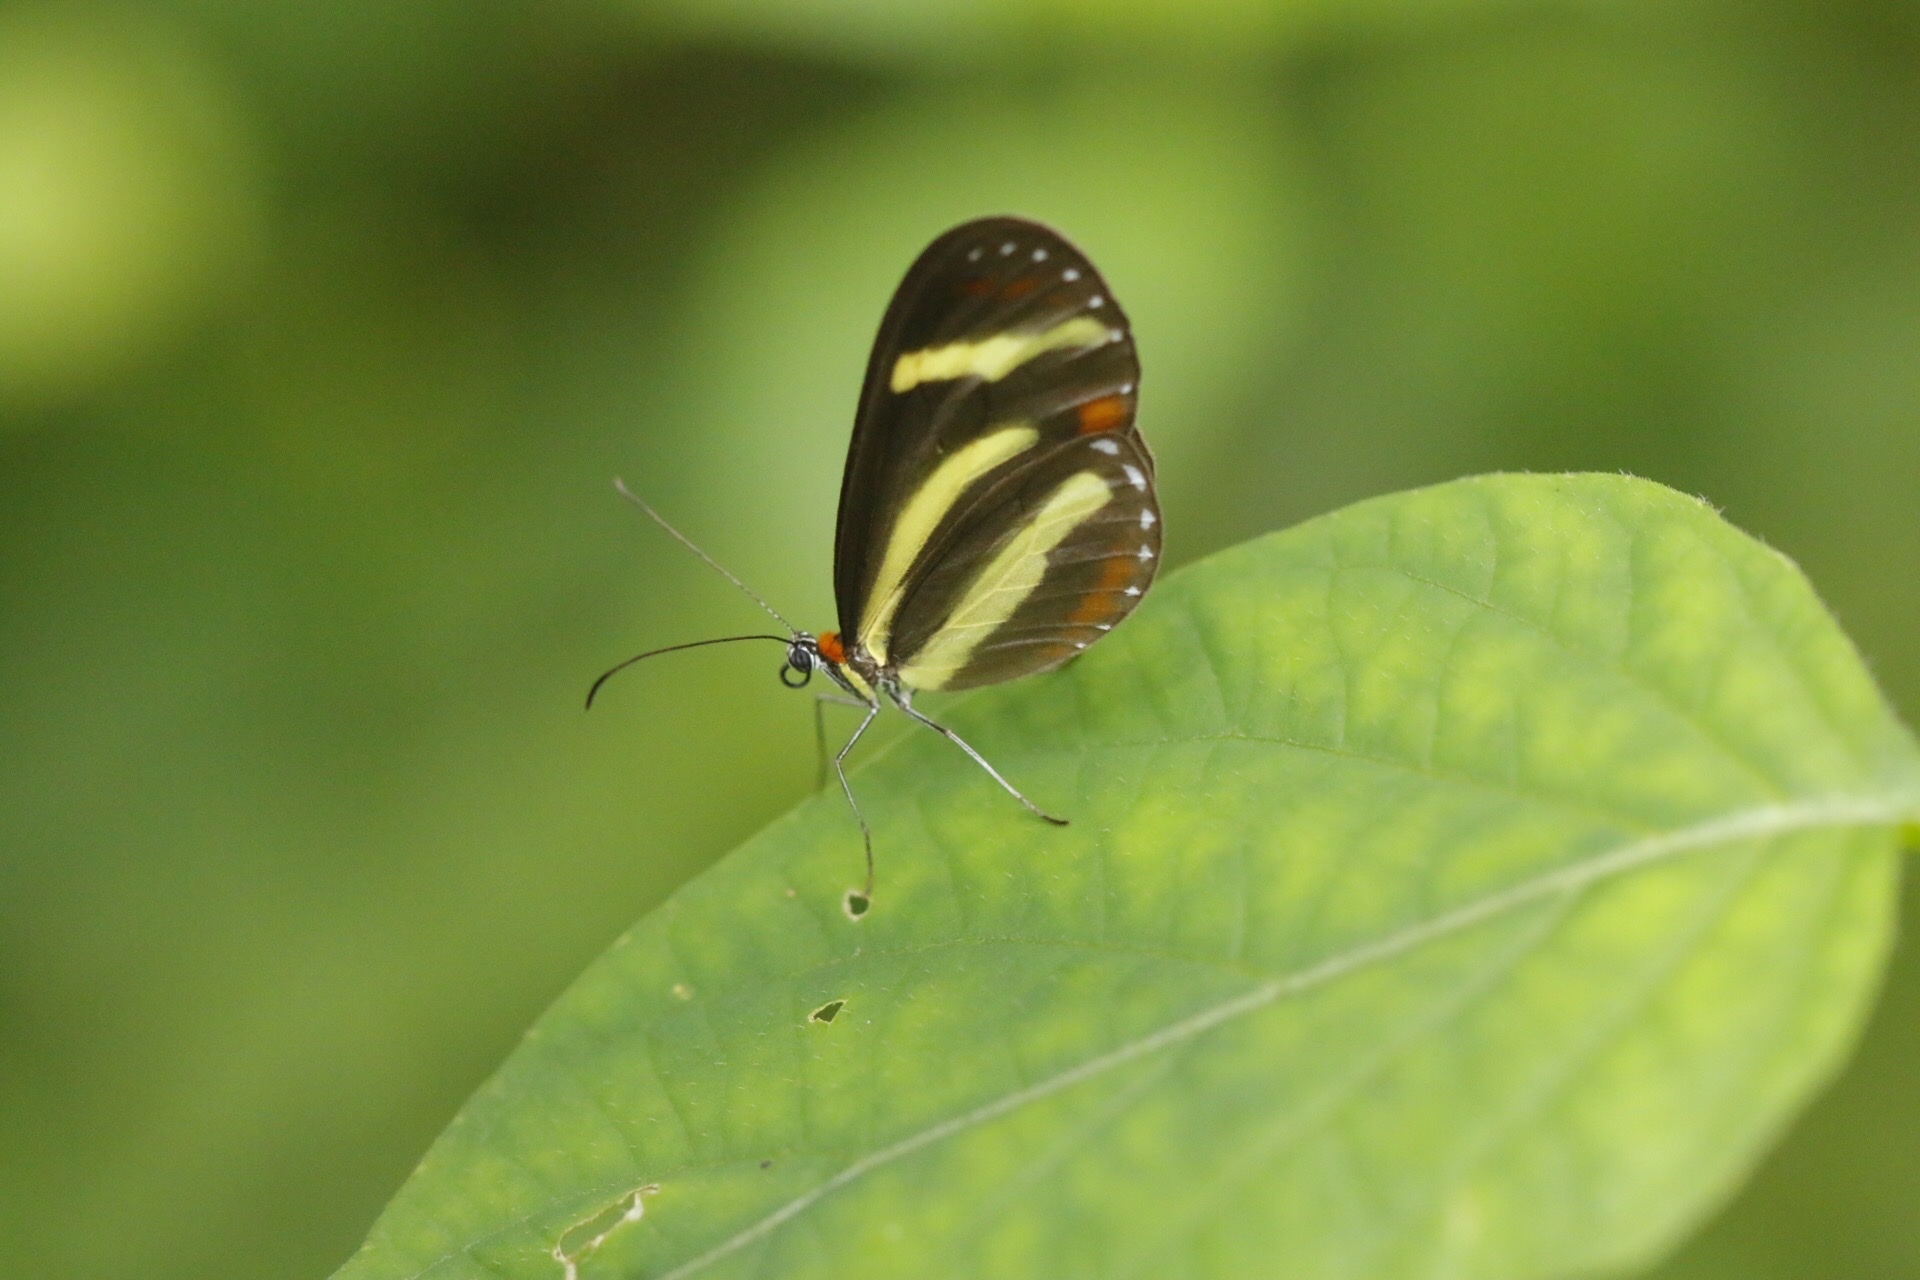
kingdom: Animalia
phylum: Arthropoda
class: Insecta
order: Lepidoptera
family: Nymphalidae
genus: Scada
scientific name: Scada
